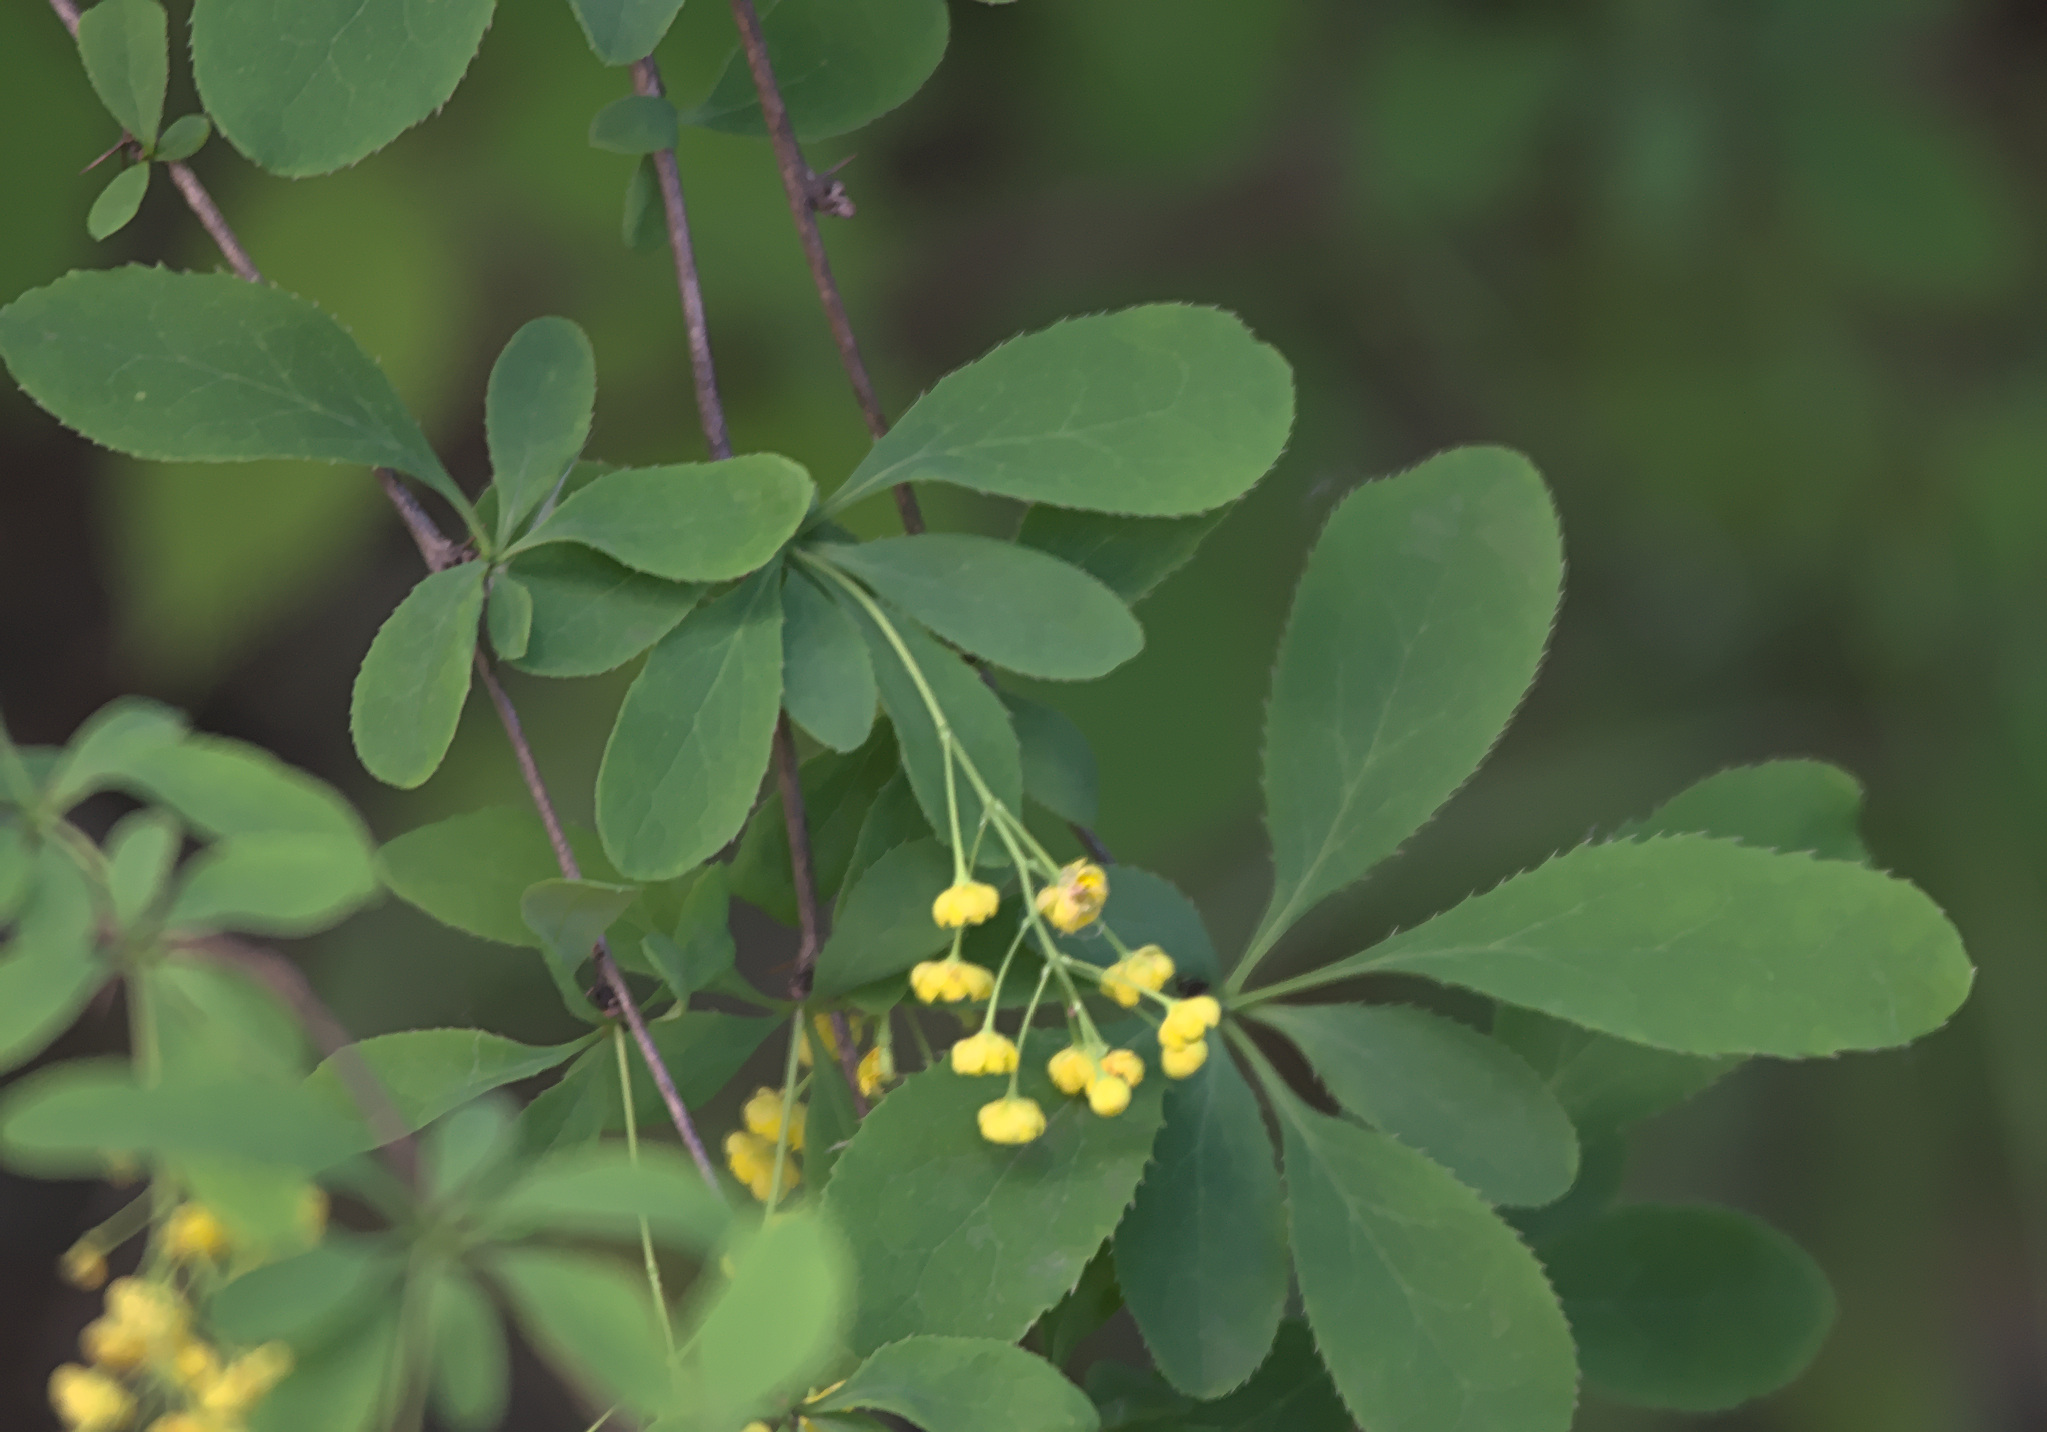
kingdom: Plantae
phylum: Tracheophyta
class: Magnoliopsida
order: Ranunculales
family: Berberidaceae
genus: Berberis
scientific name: Berberis vulgaris
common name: Barberry
